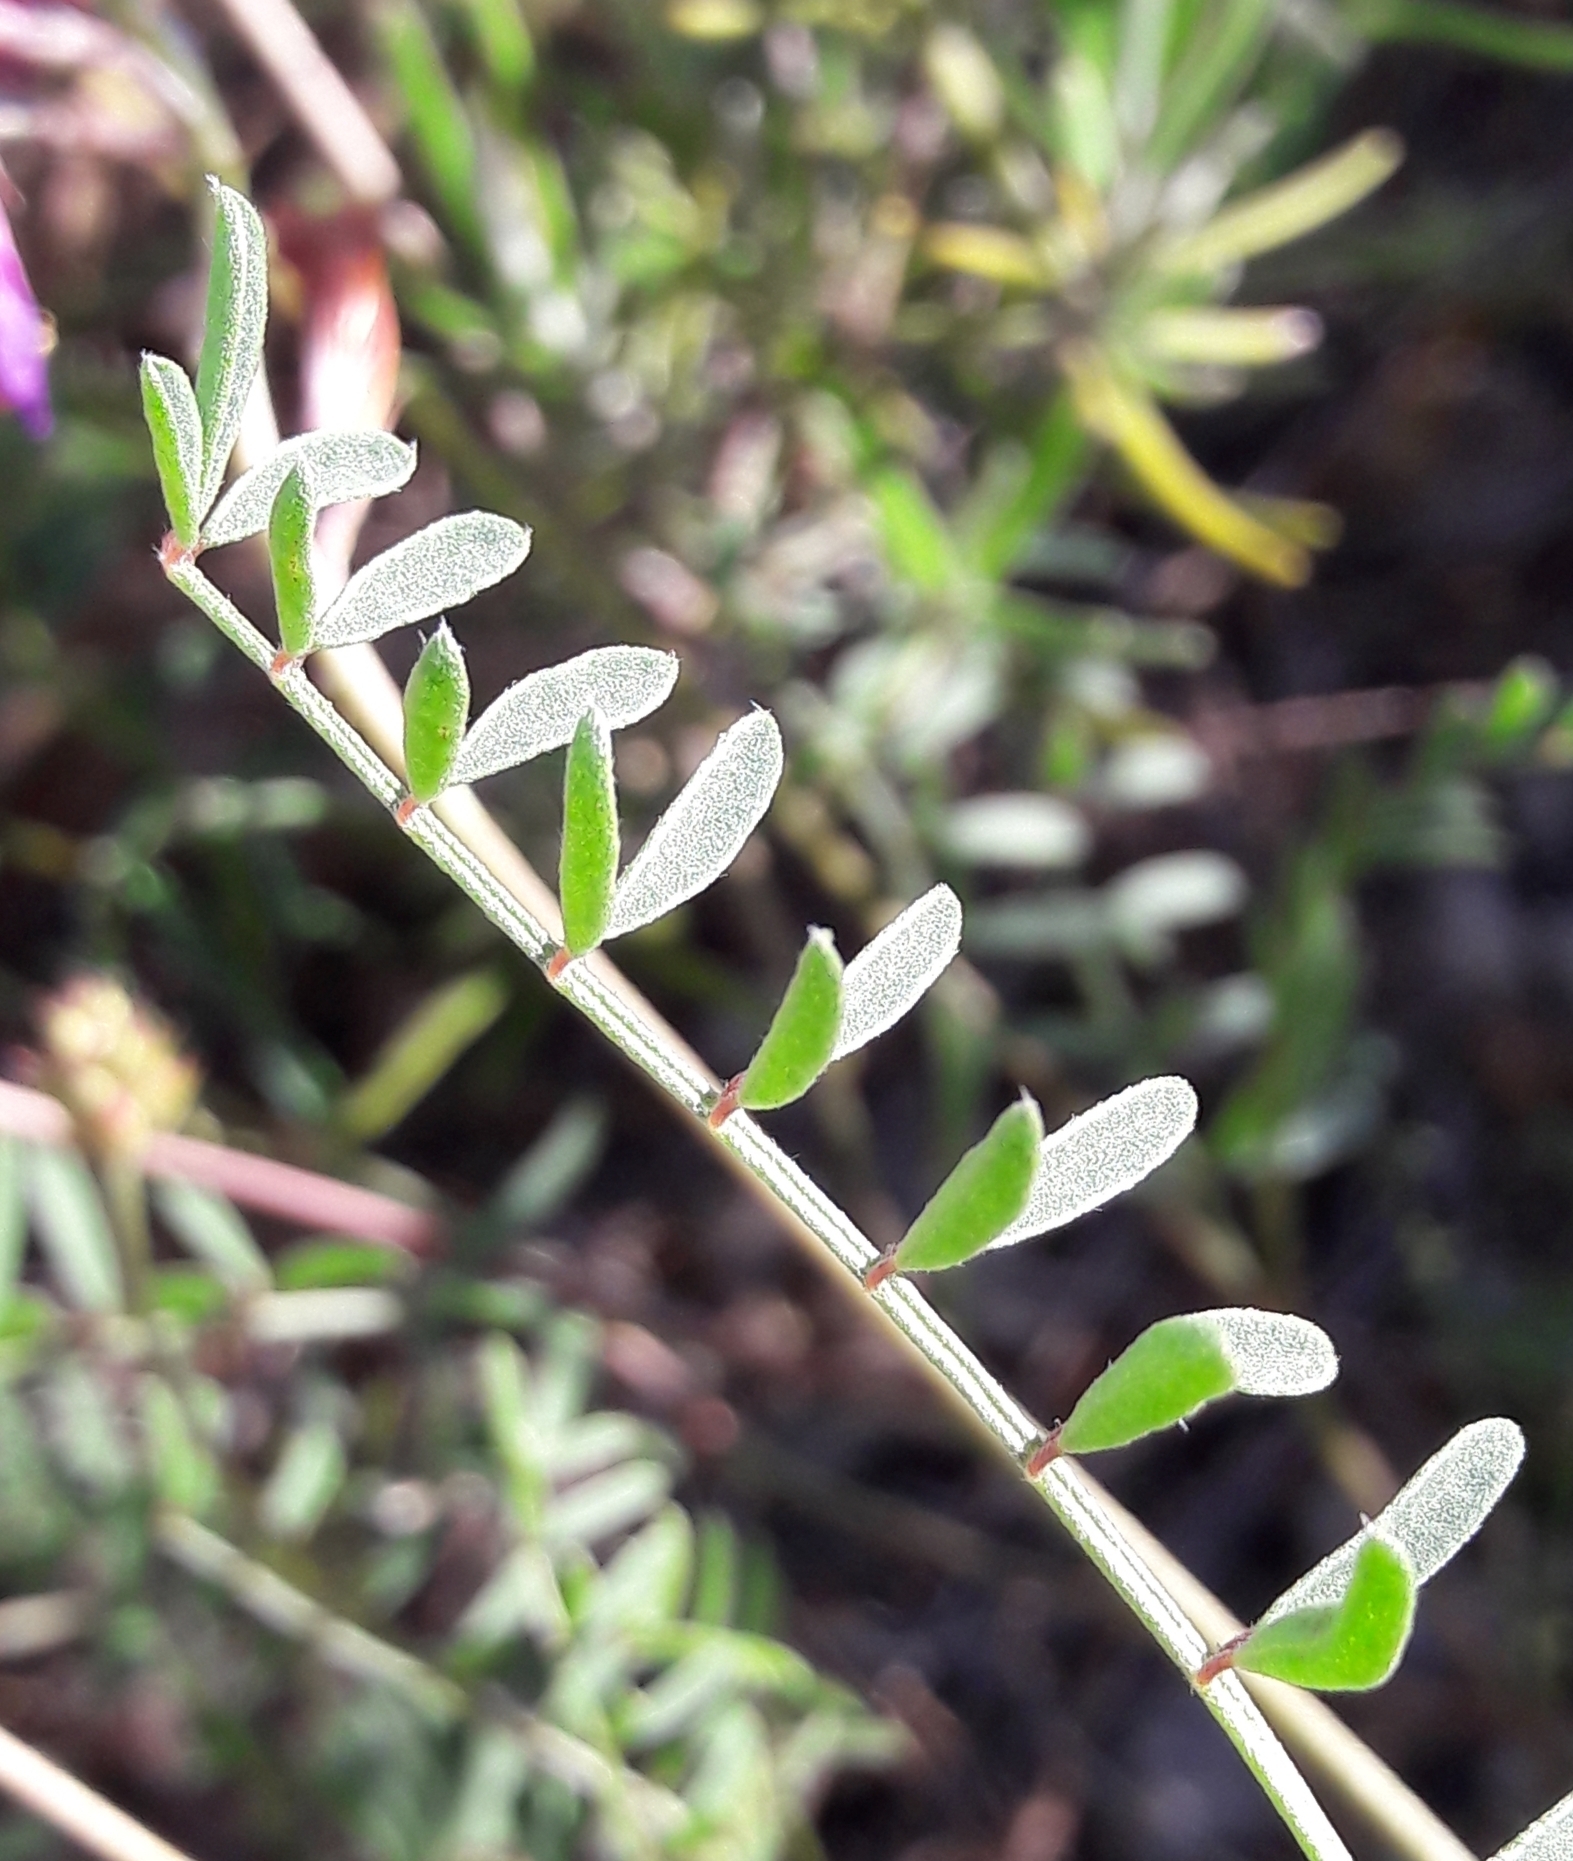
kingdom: Plantae
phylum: Tracheophyta
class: Magnoliopsida
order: Fabales
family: Fabaceae
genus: Hedysarum
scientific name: Hedysarum boveanum
